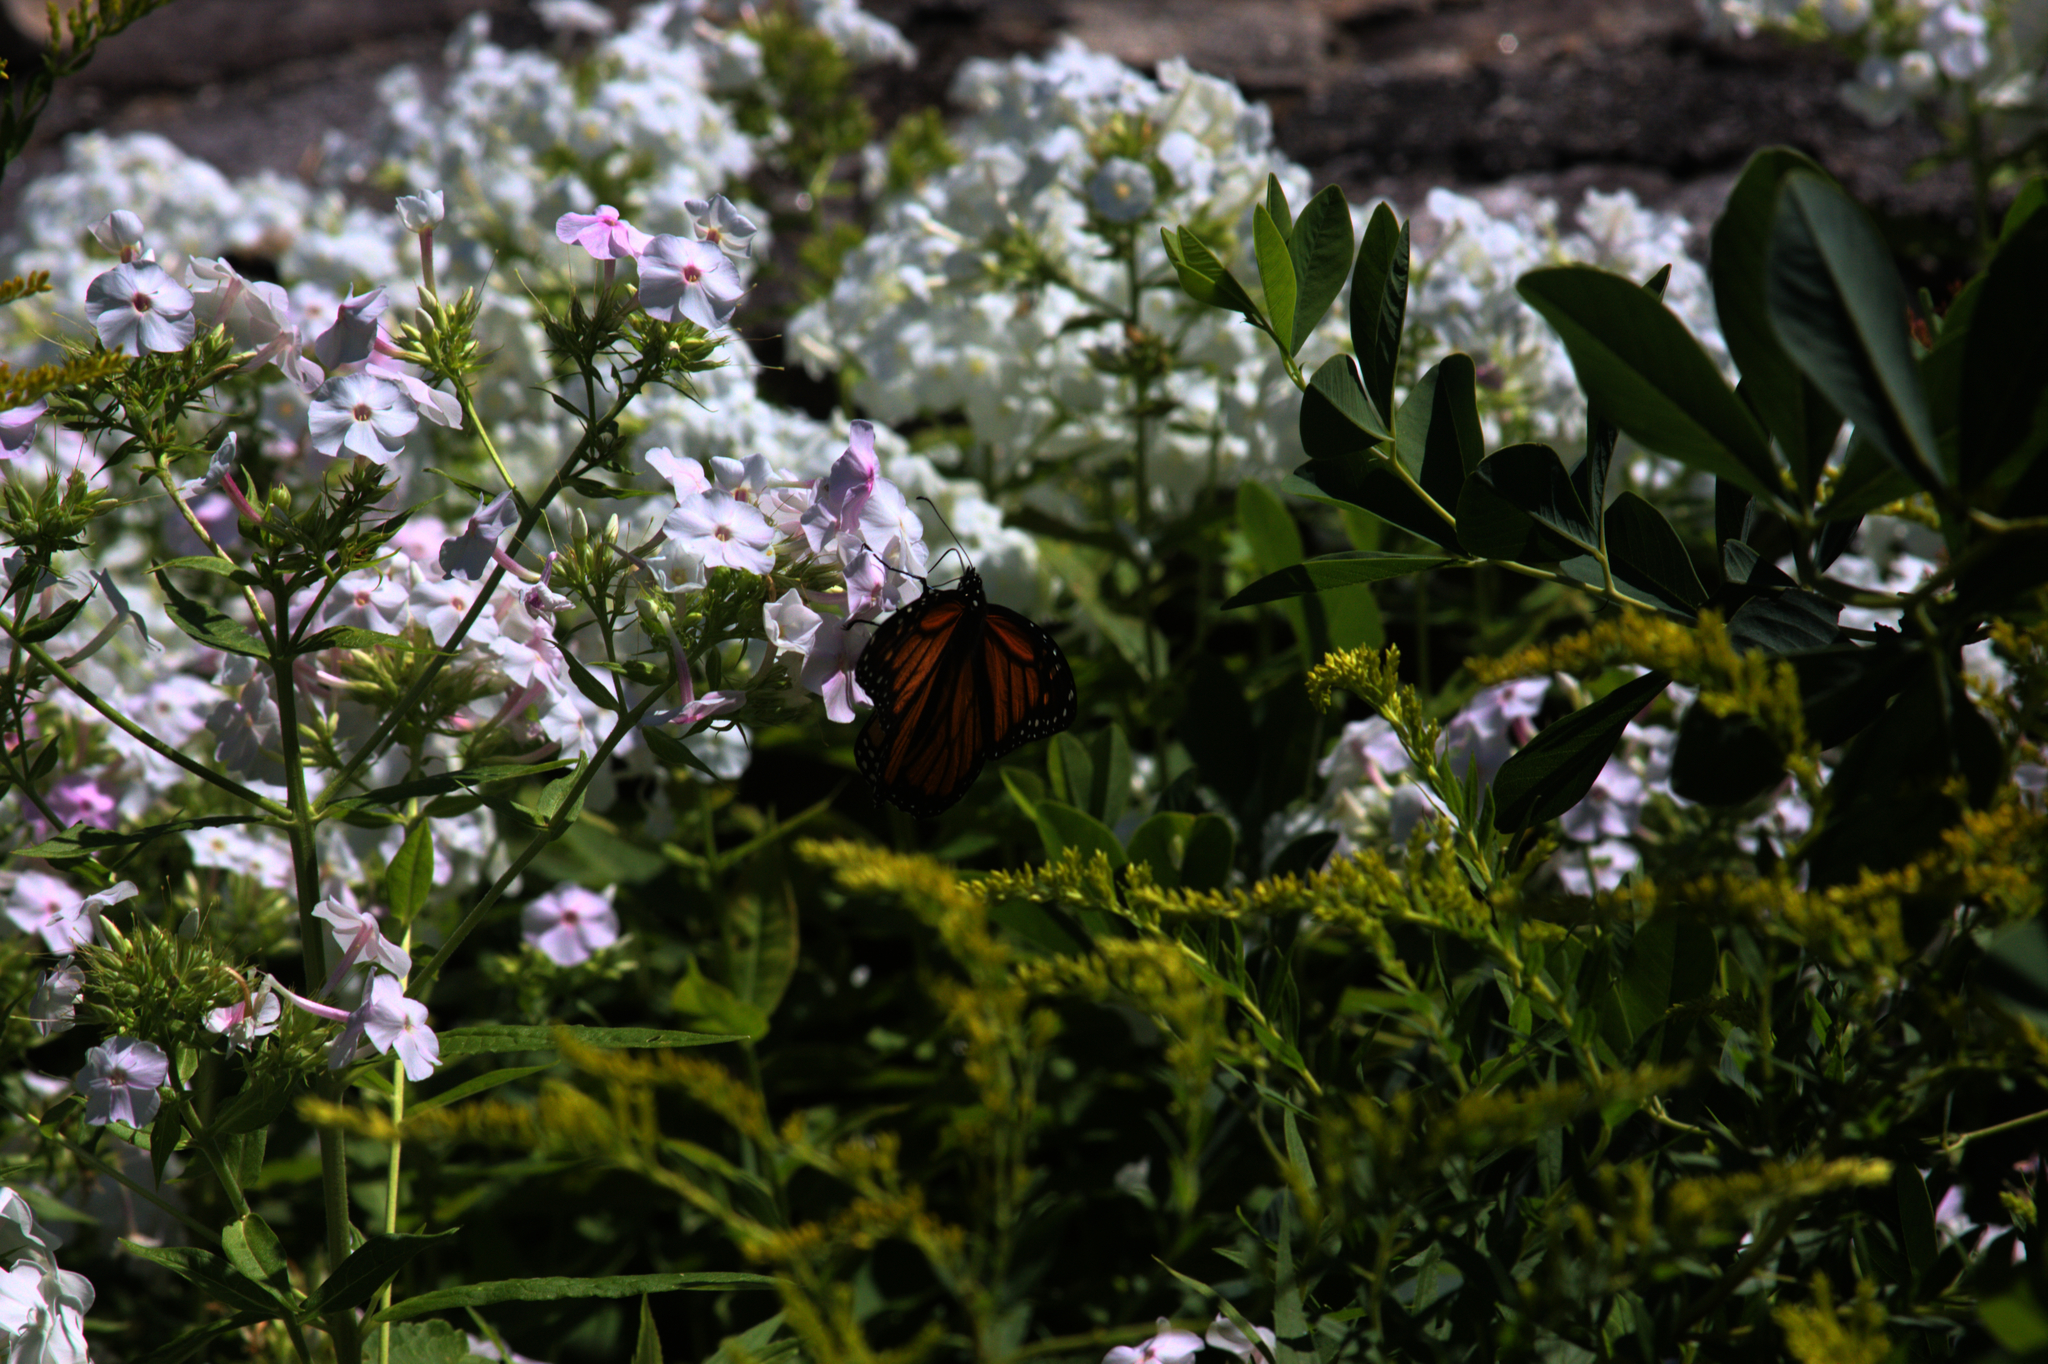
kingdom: Animalia
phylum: Arthropoda
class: Insecta
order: Lepidoptera
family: Nymphalidae
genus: Danaus
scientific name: Danaus plexippus
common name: Monarch
